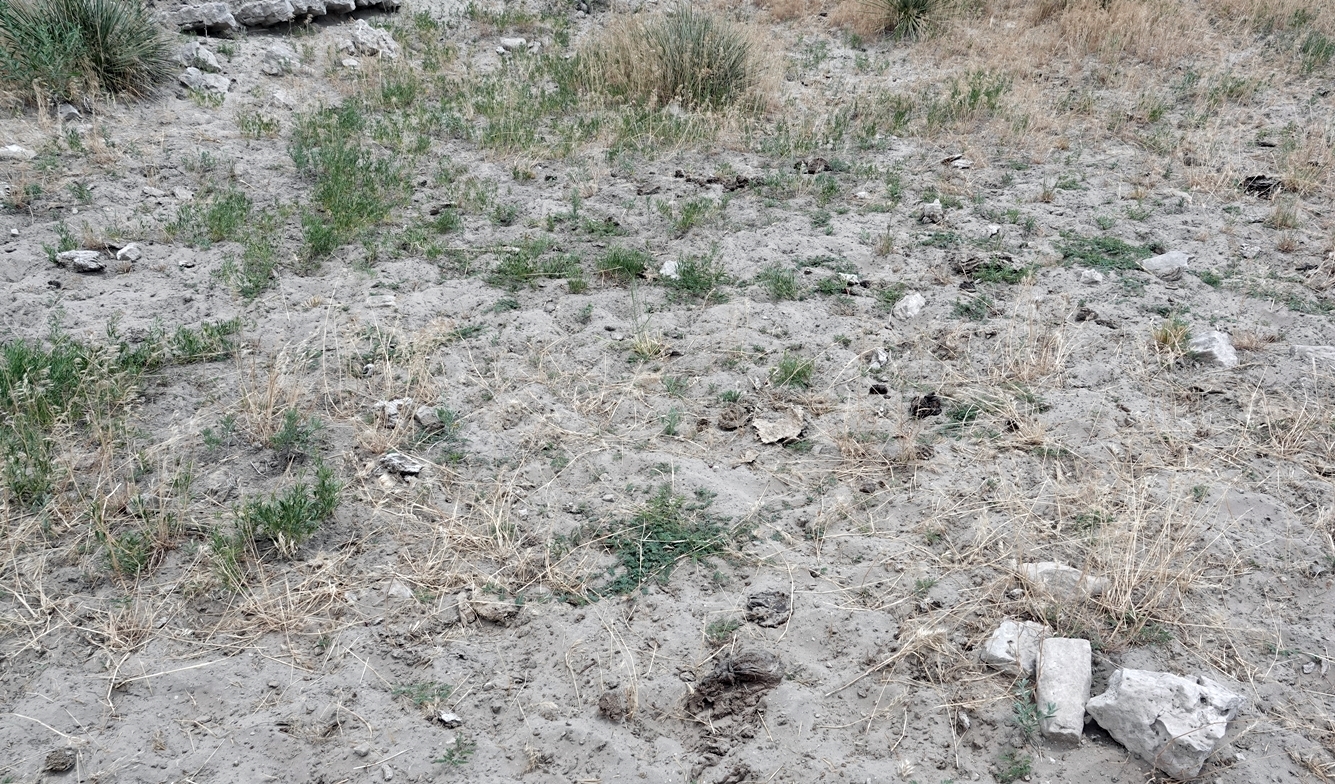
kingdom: Plantae
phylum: Tracheophyta
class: Magnoliopsida
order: Zygophyllales
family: Zygophyllaceae
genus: Tribulus
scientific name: Tribulus terrestris
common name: Puncturevine
